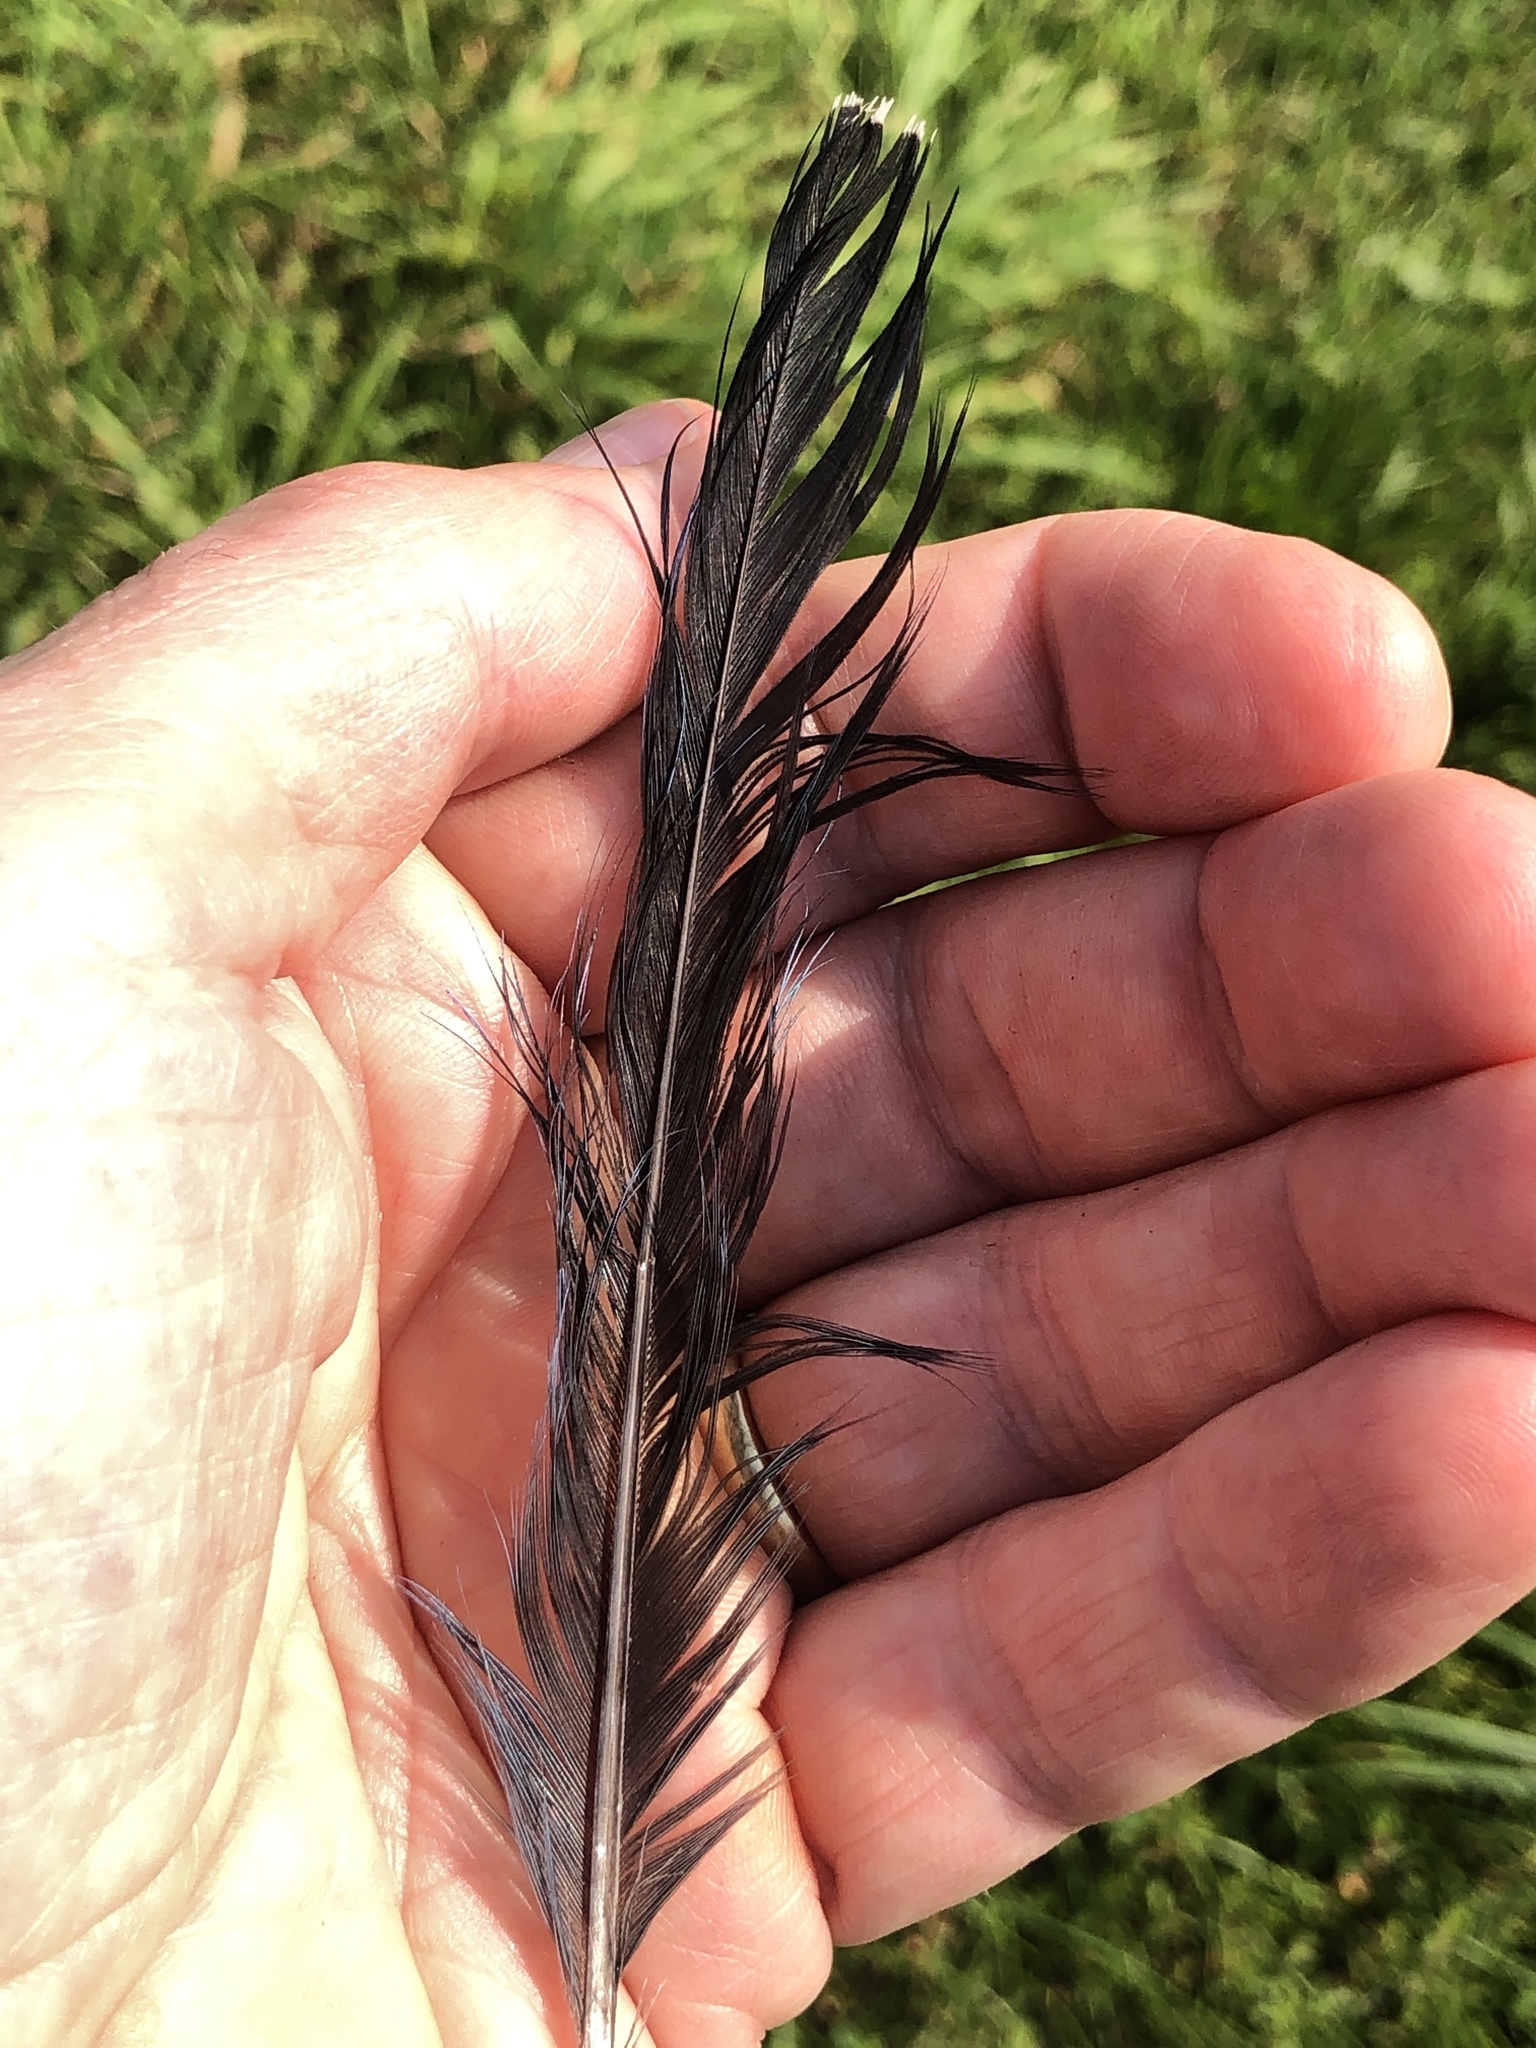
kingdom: Animalia
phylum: Chordata
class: Aves
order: Passeriformes
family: Corvidae
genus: Cyanocitta
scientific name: Cyanocitta cristata
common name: Blue jay
